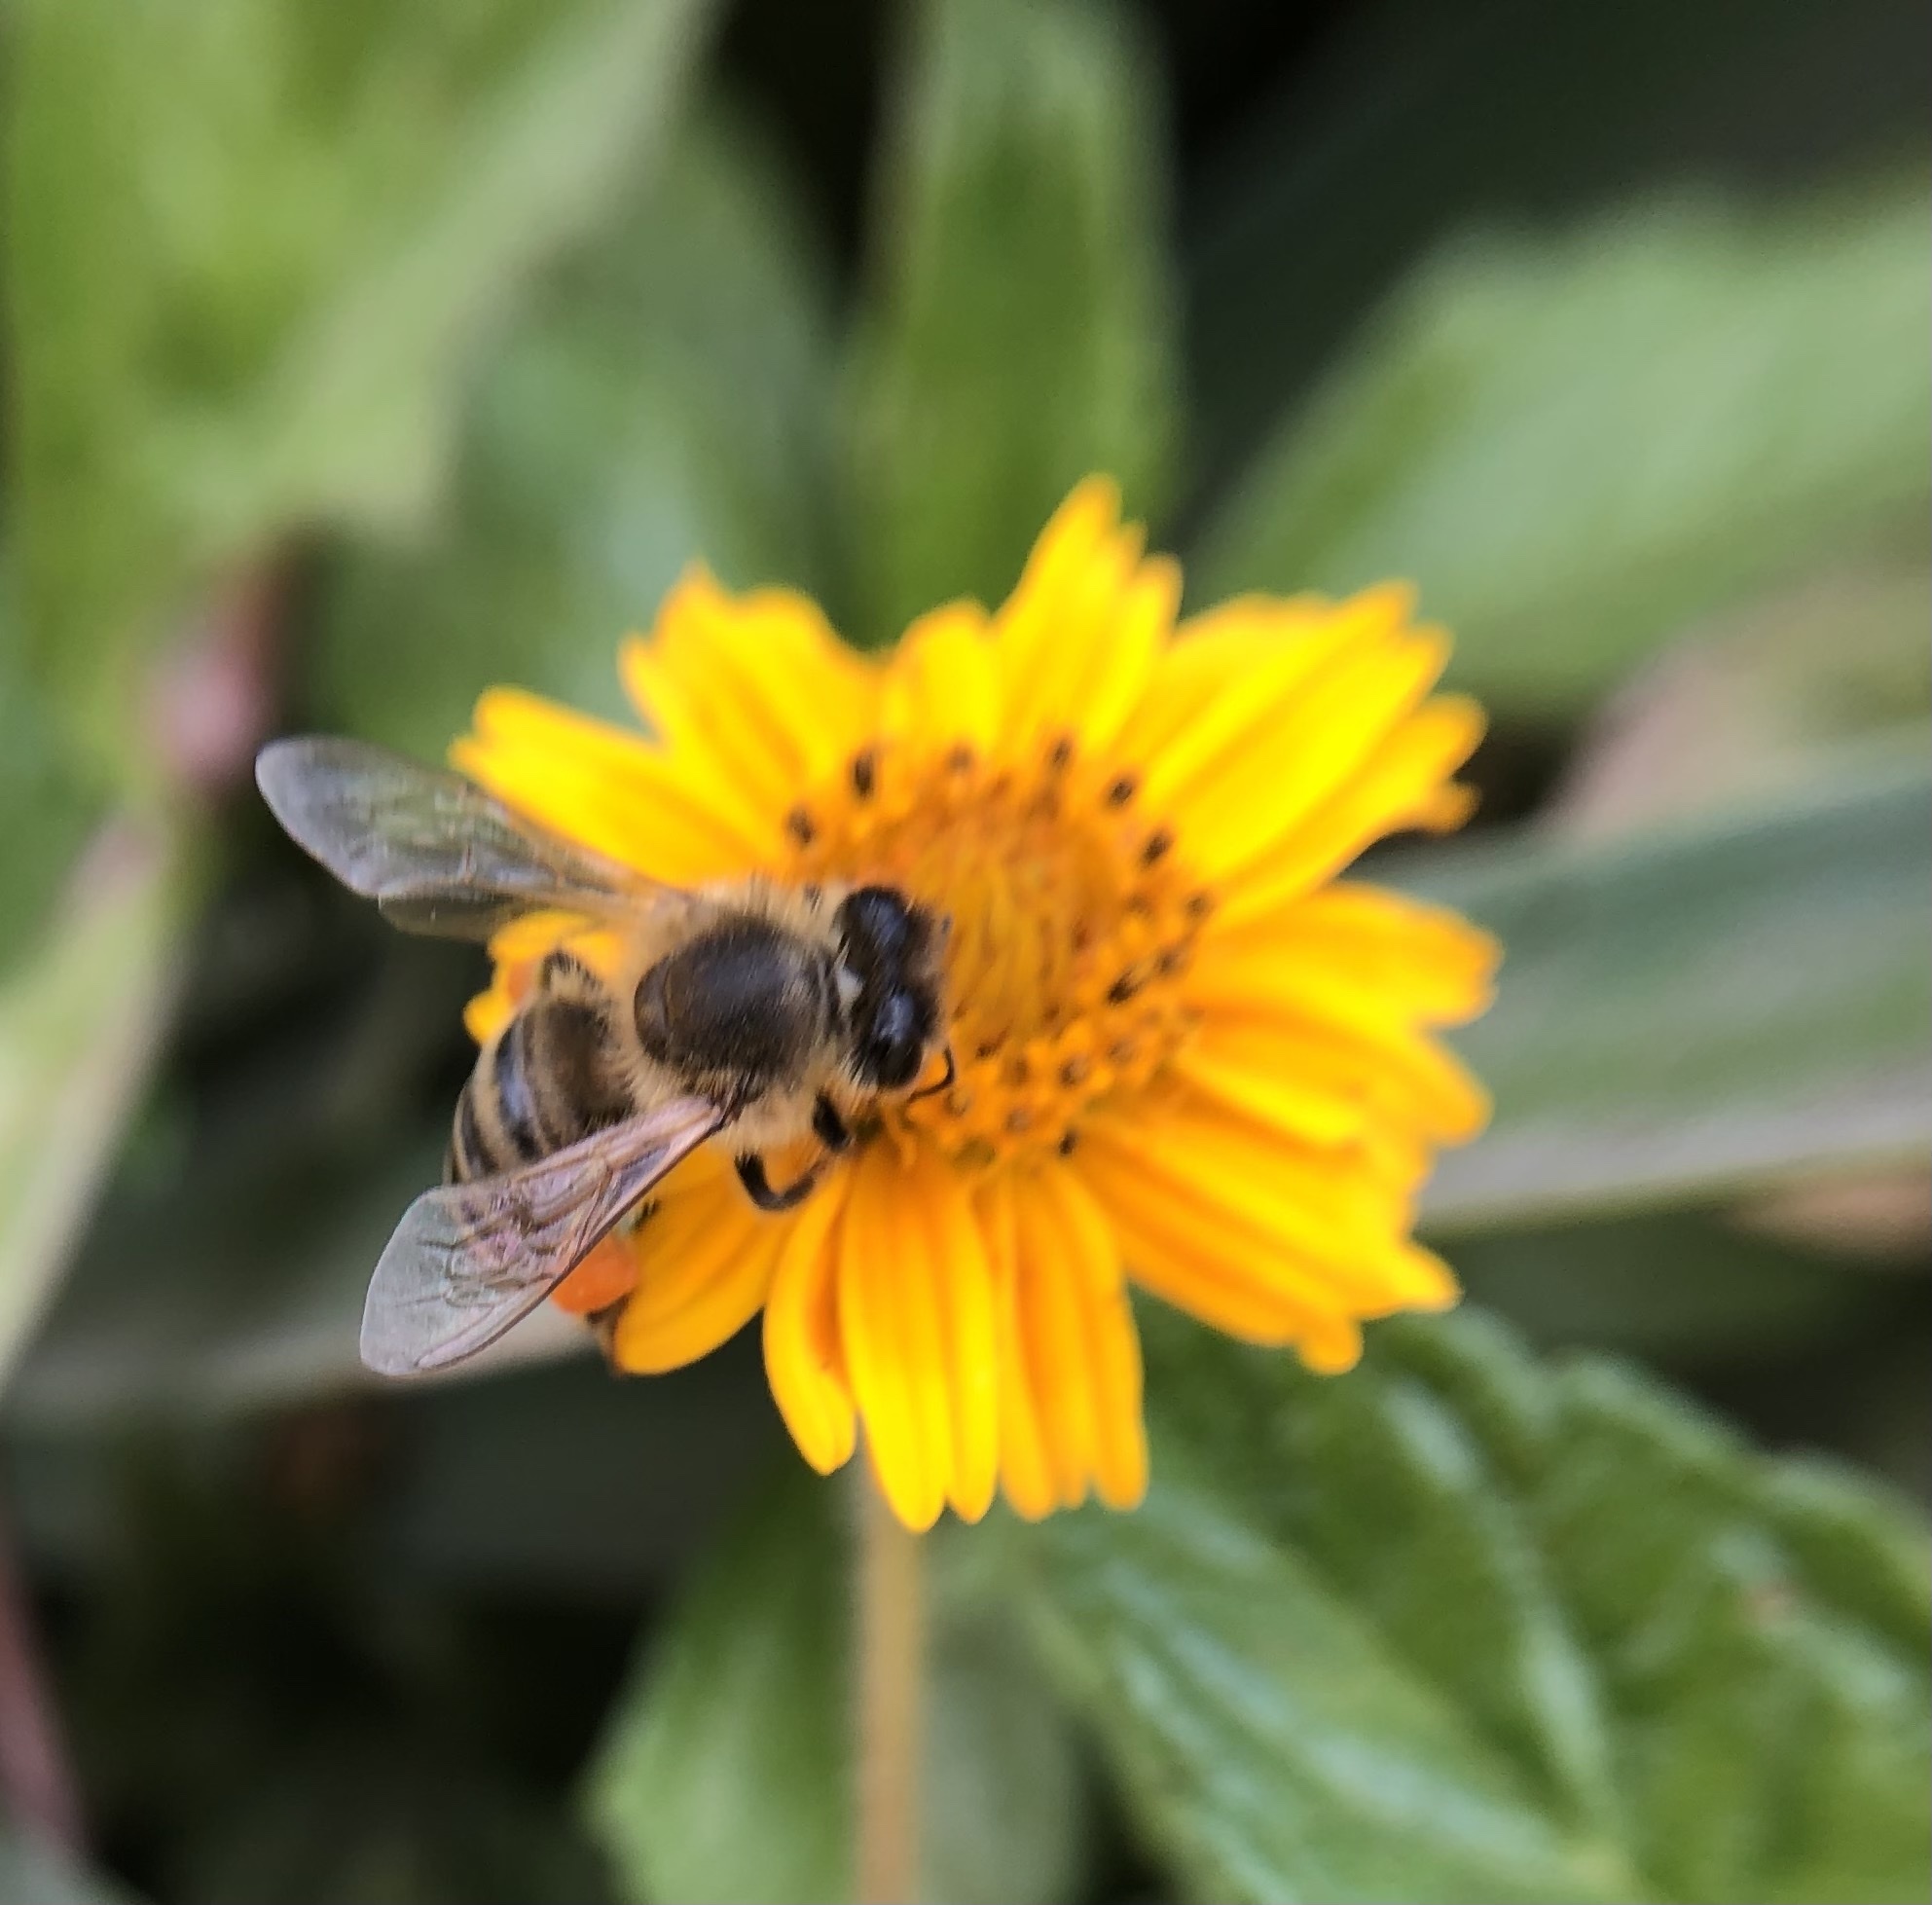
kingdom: Animalia
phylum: Arthropoda
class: Insecta
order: Hymenoptera
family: Apidae
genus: Apis
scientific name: Apis mellifera
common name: Honey bee
